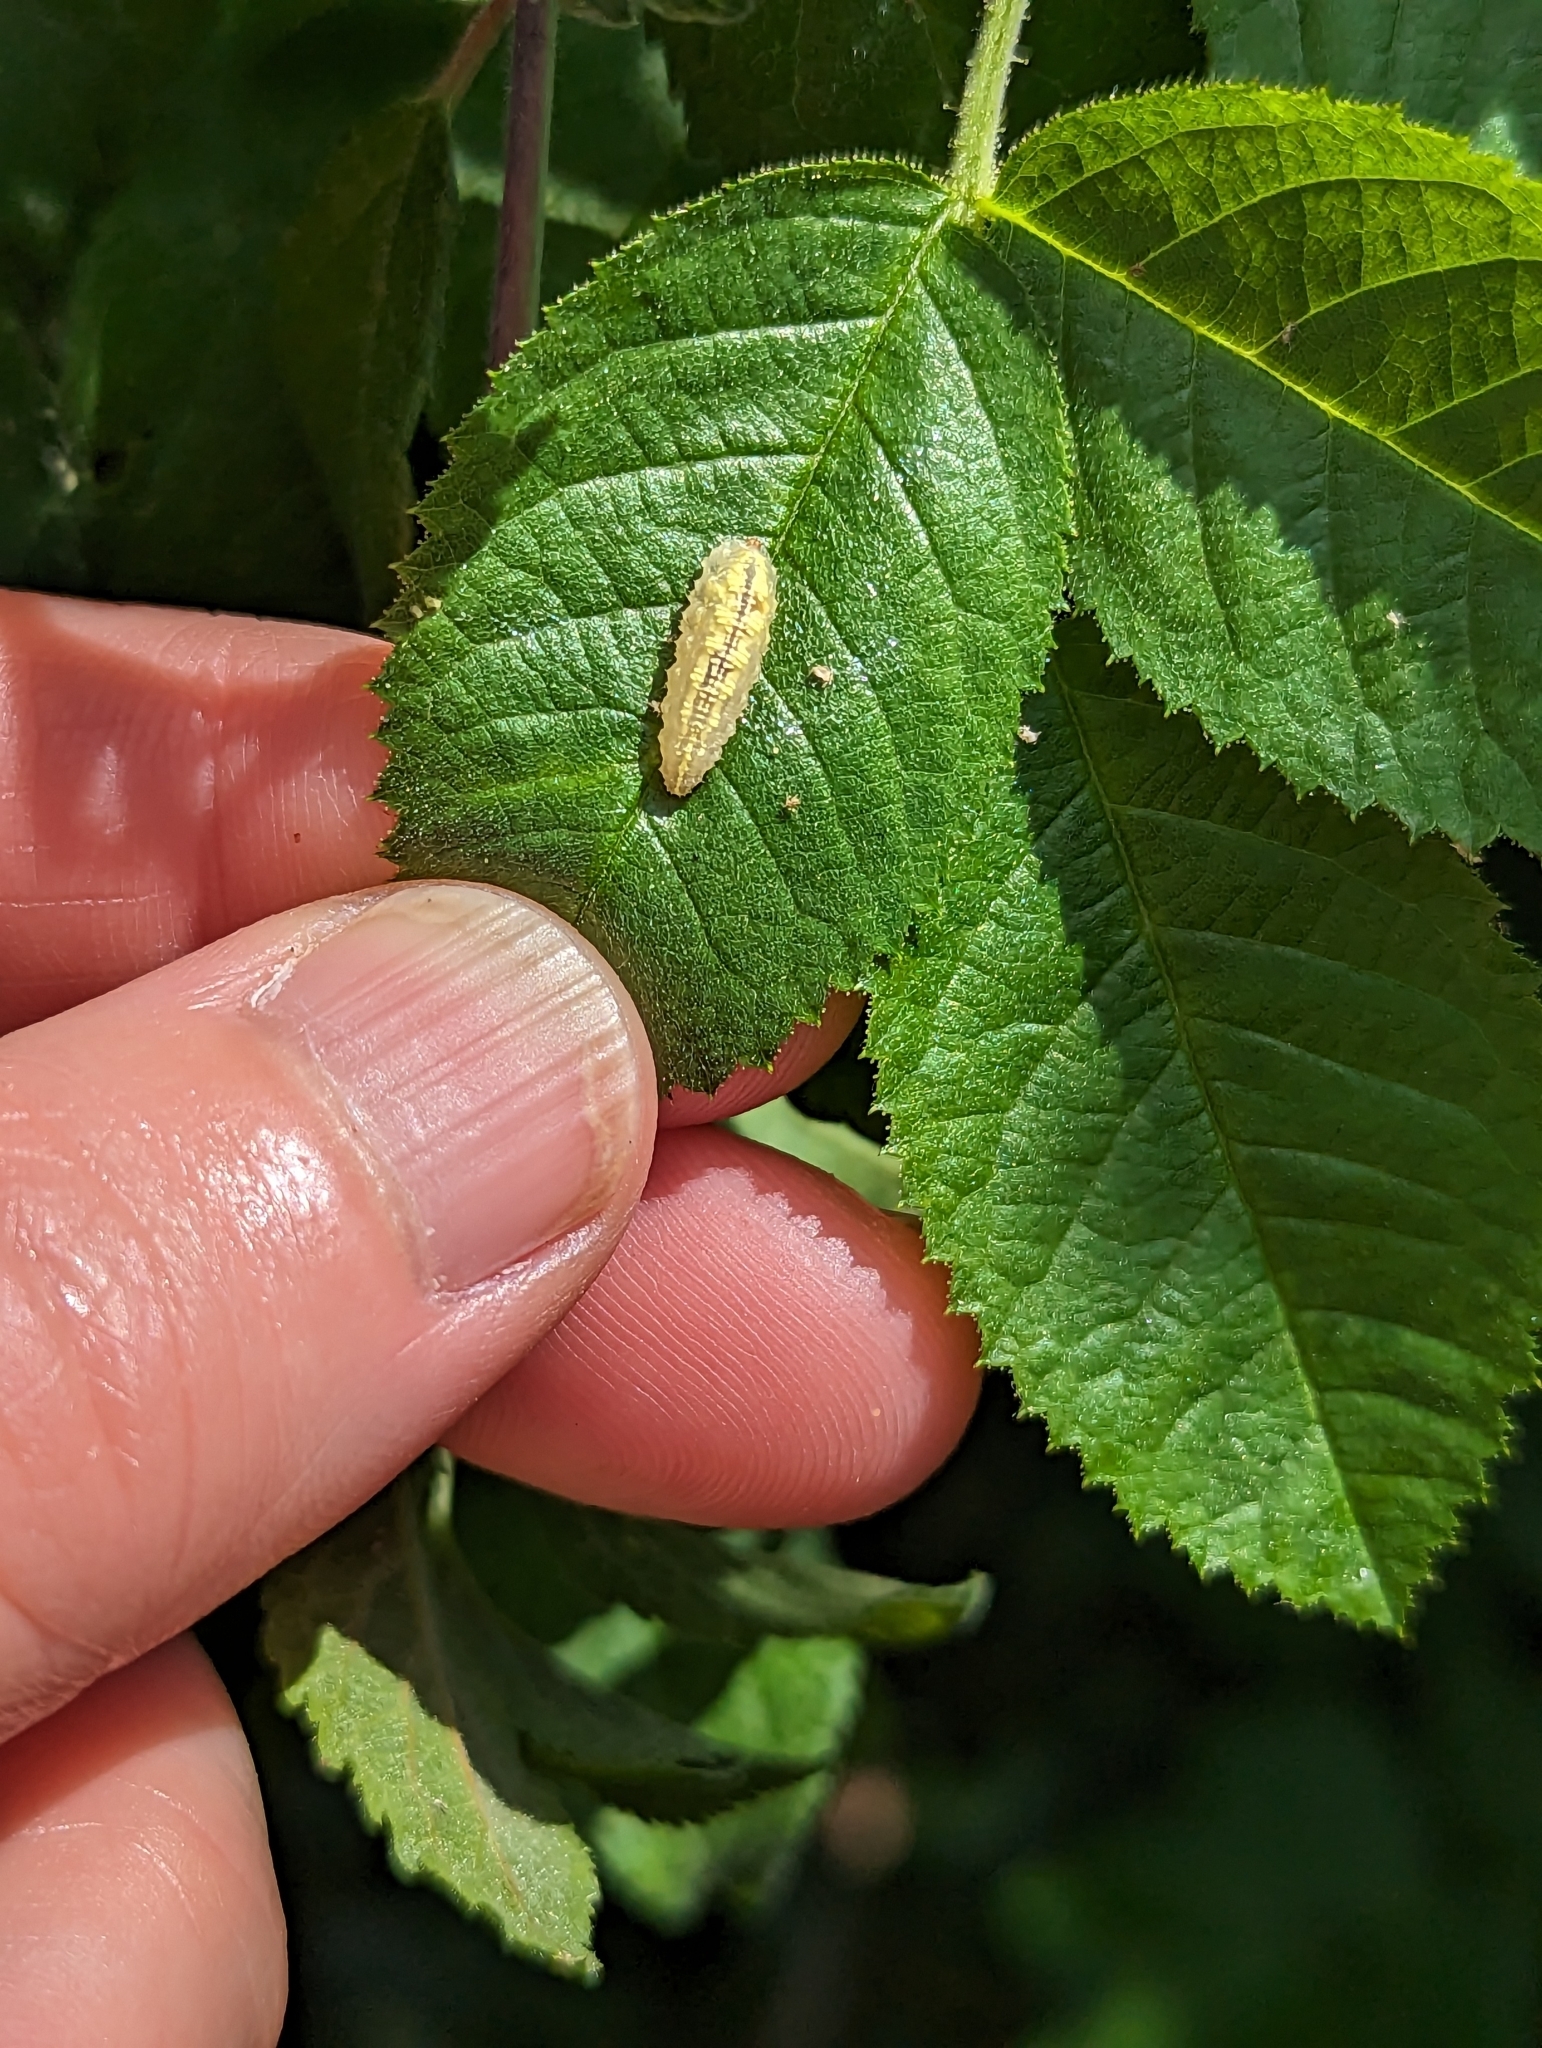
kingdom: Animalia
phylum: Arthropoda
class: Insecta
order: Diptera
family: Syrphidae
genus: Syrphus
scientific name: Syrphus
